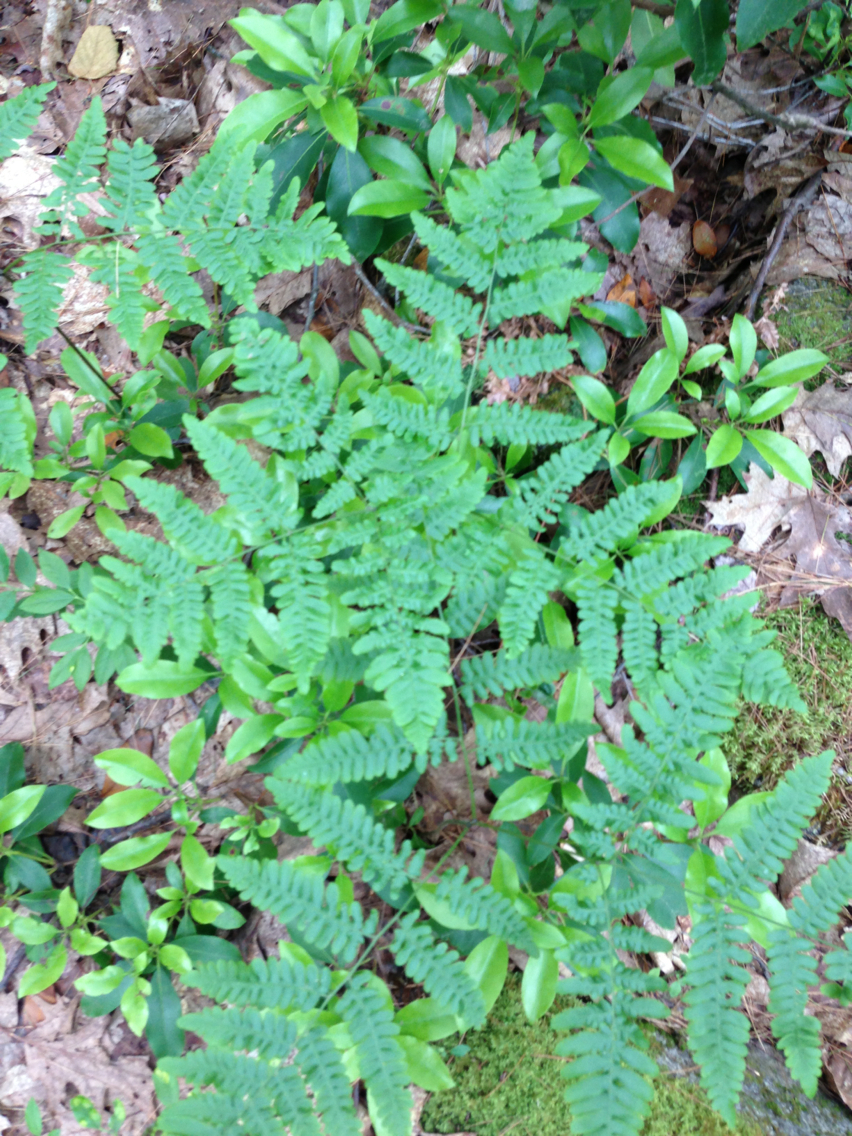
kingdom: Plantae
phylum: Tracheophyta
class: Polypodiopsida
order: Polypodiales
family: Dennstaedtiaceae
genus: Pteridium
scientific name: Pteridium aquilinum
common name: Bracken
